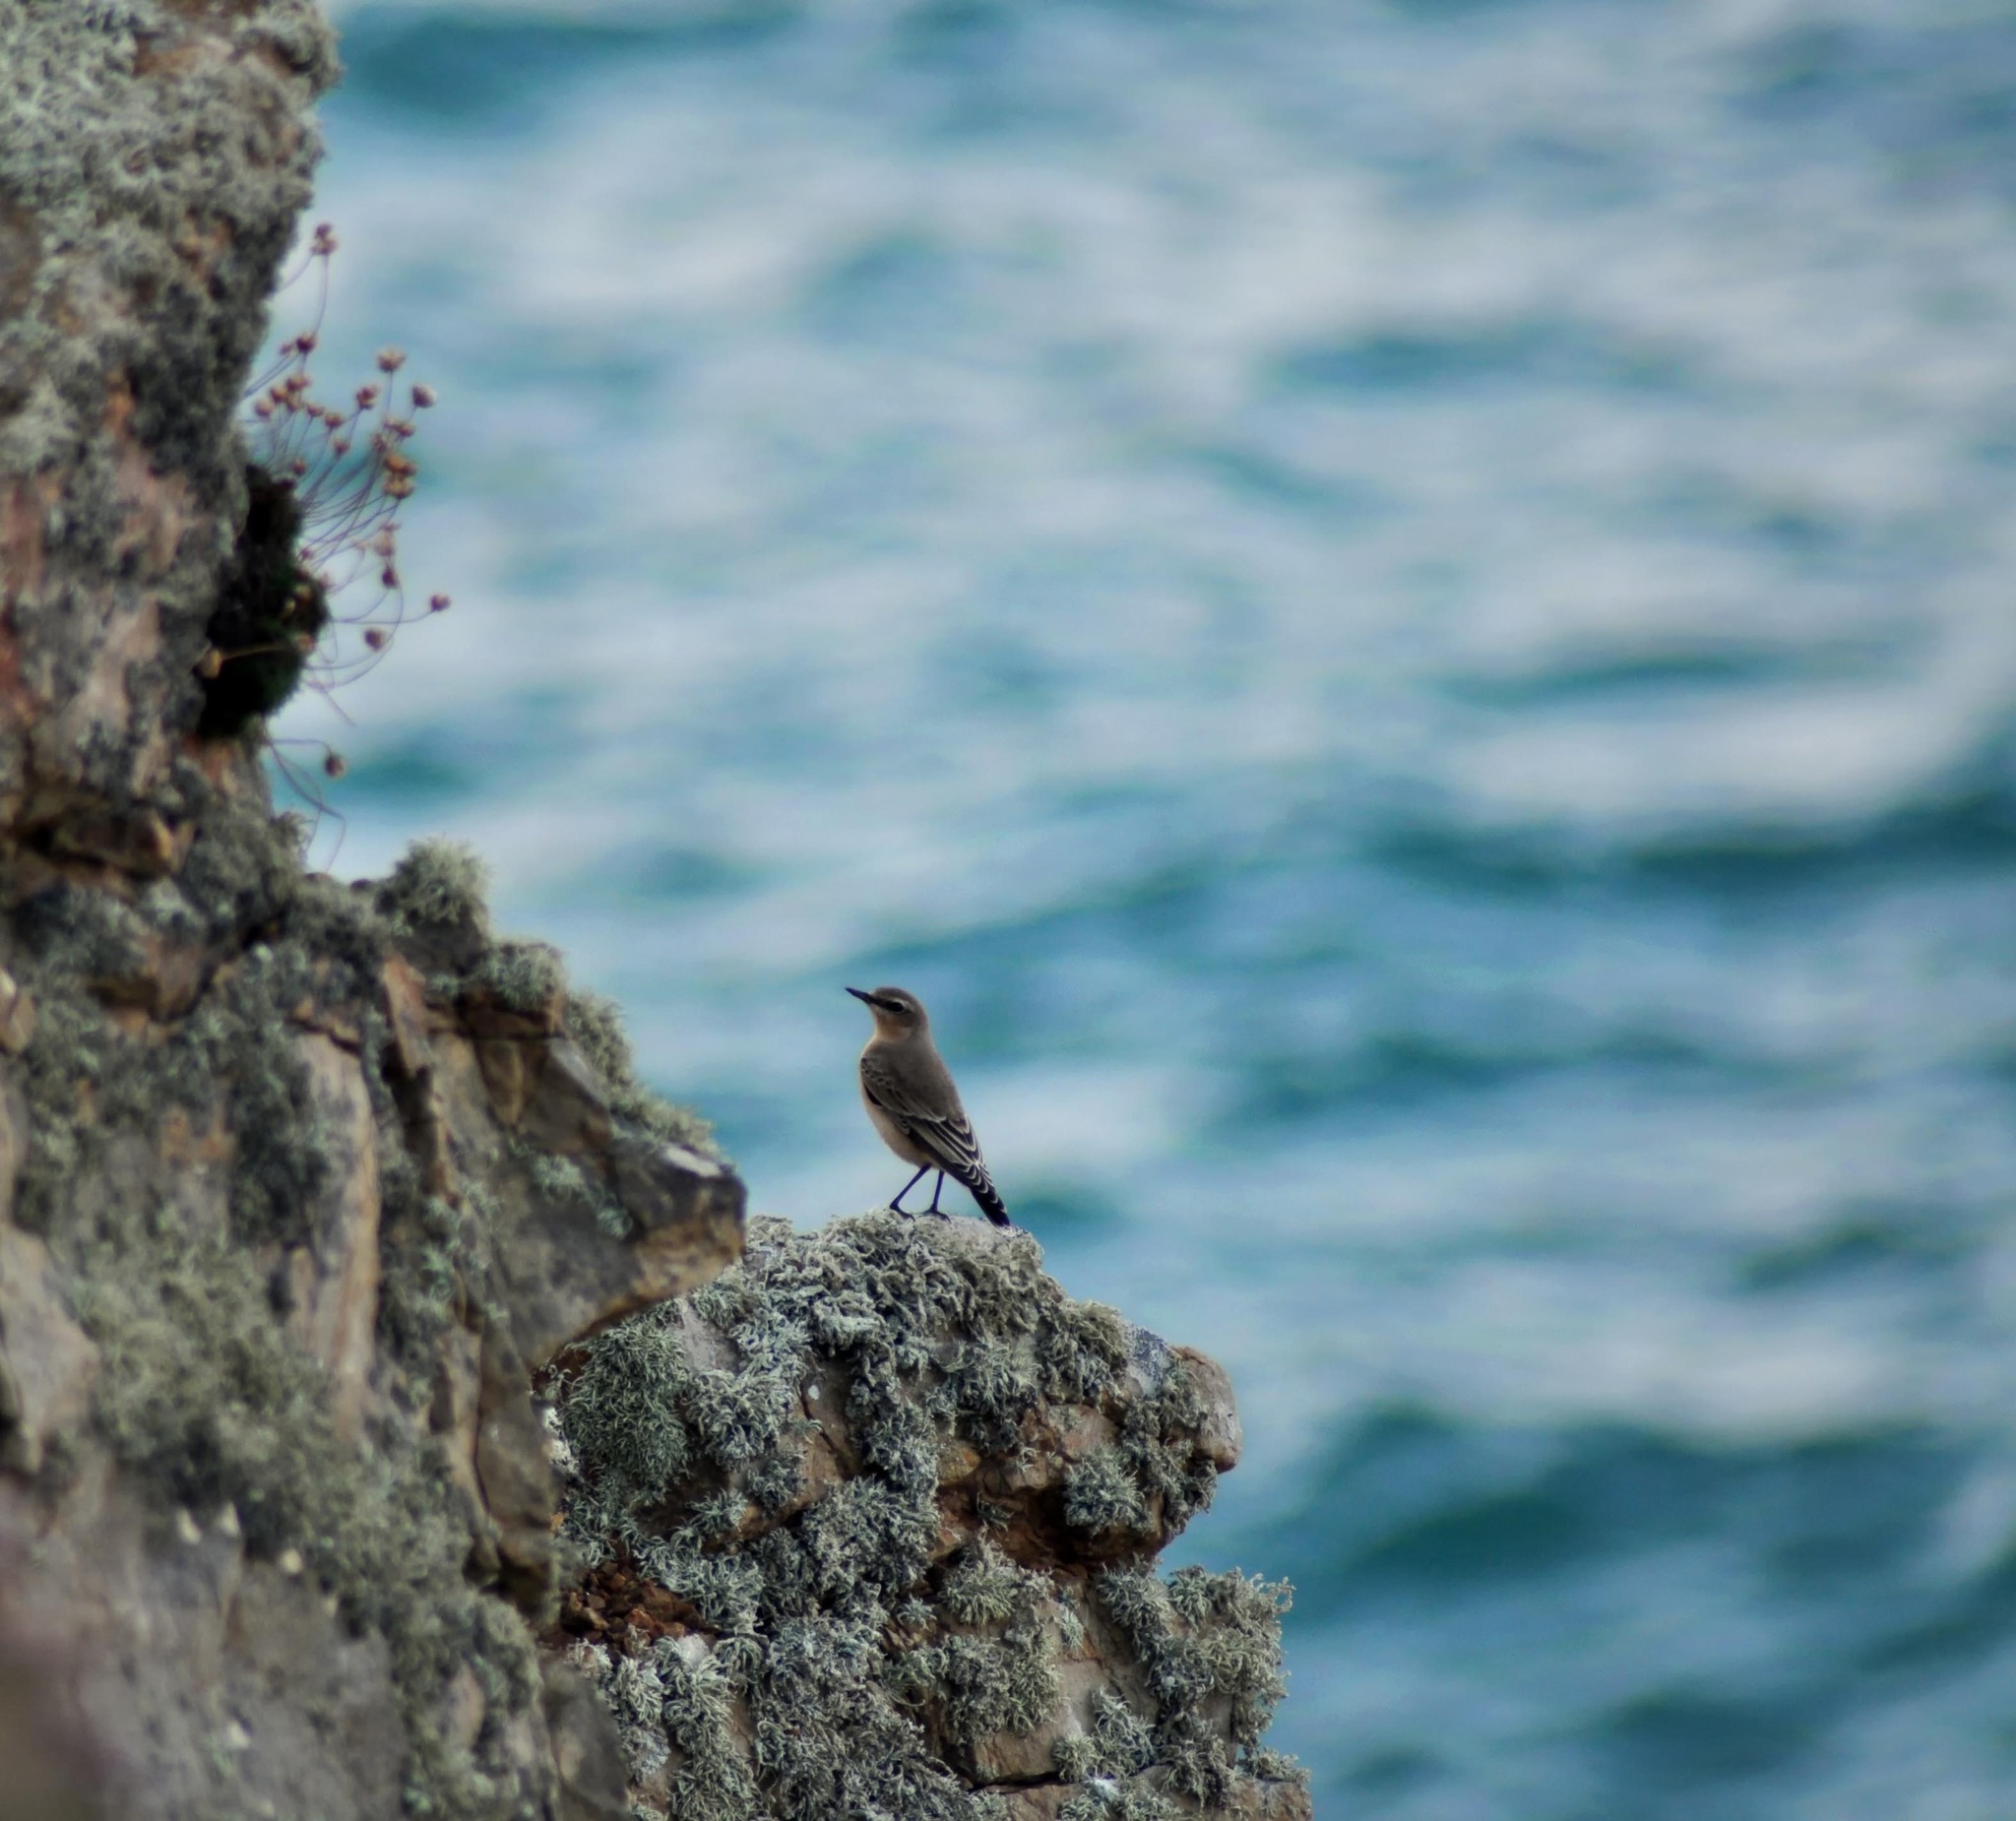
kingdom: Animalia
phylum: Chordata
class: Aves
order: Passeriformes
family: Muscicapidae
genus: Oenanthe
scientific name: Oenanthe oenanthe
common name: Northern wheatear
